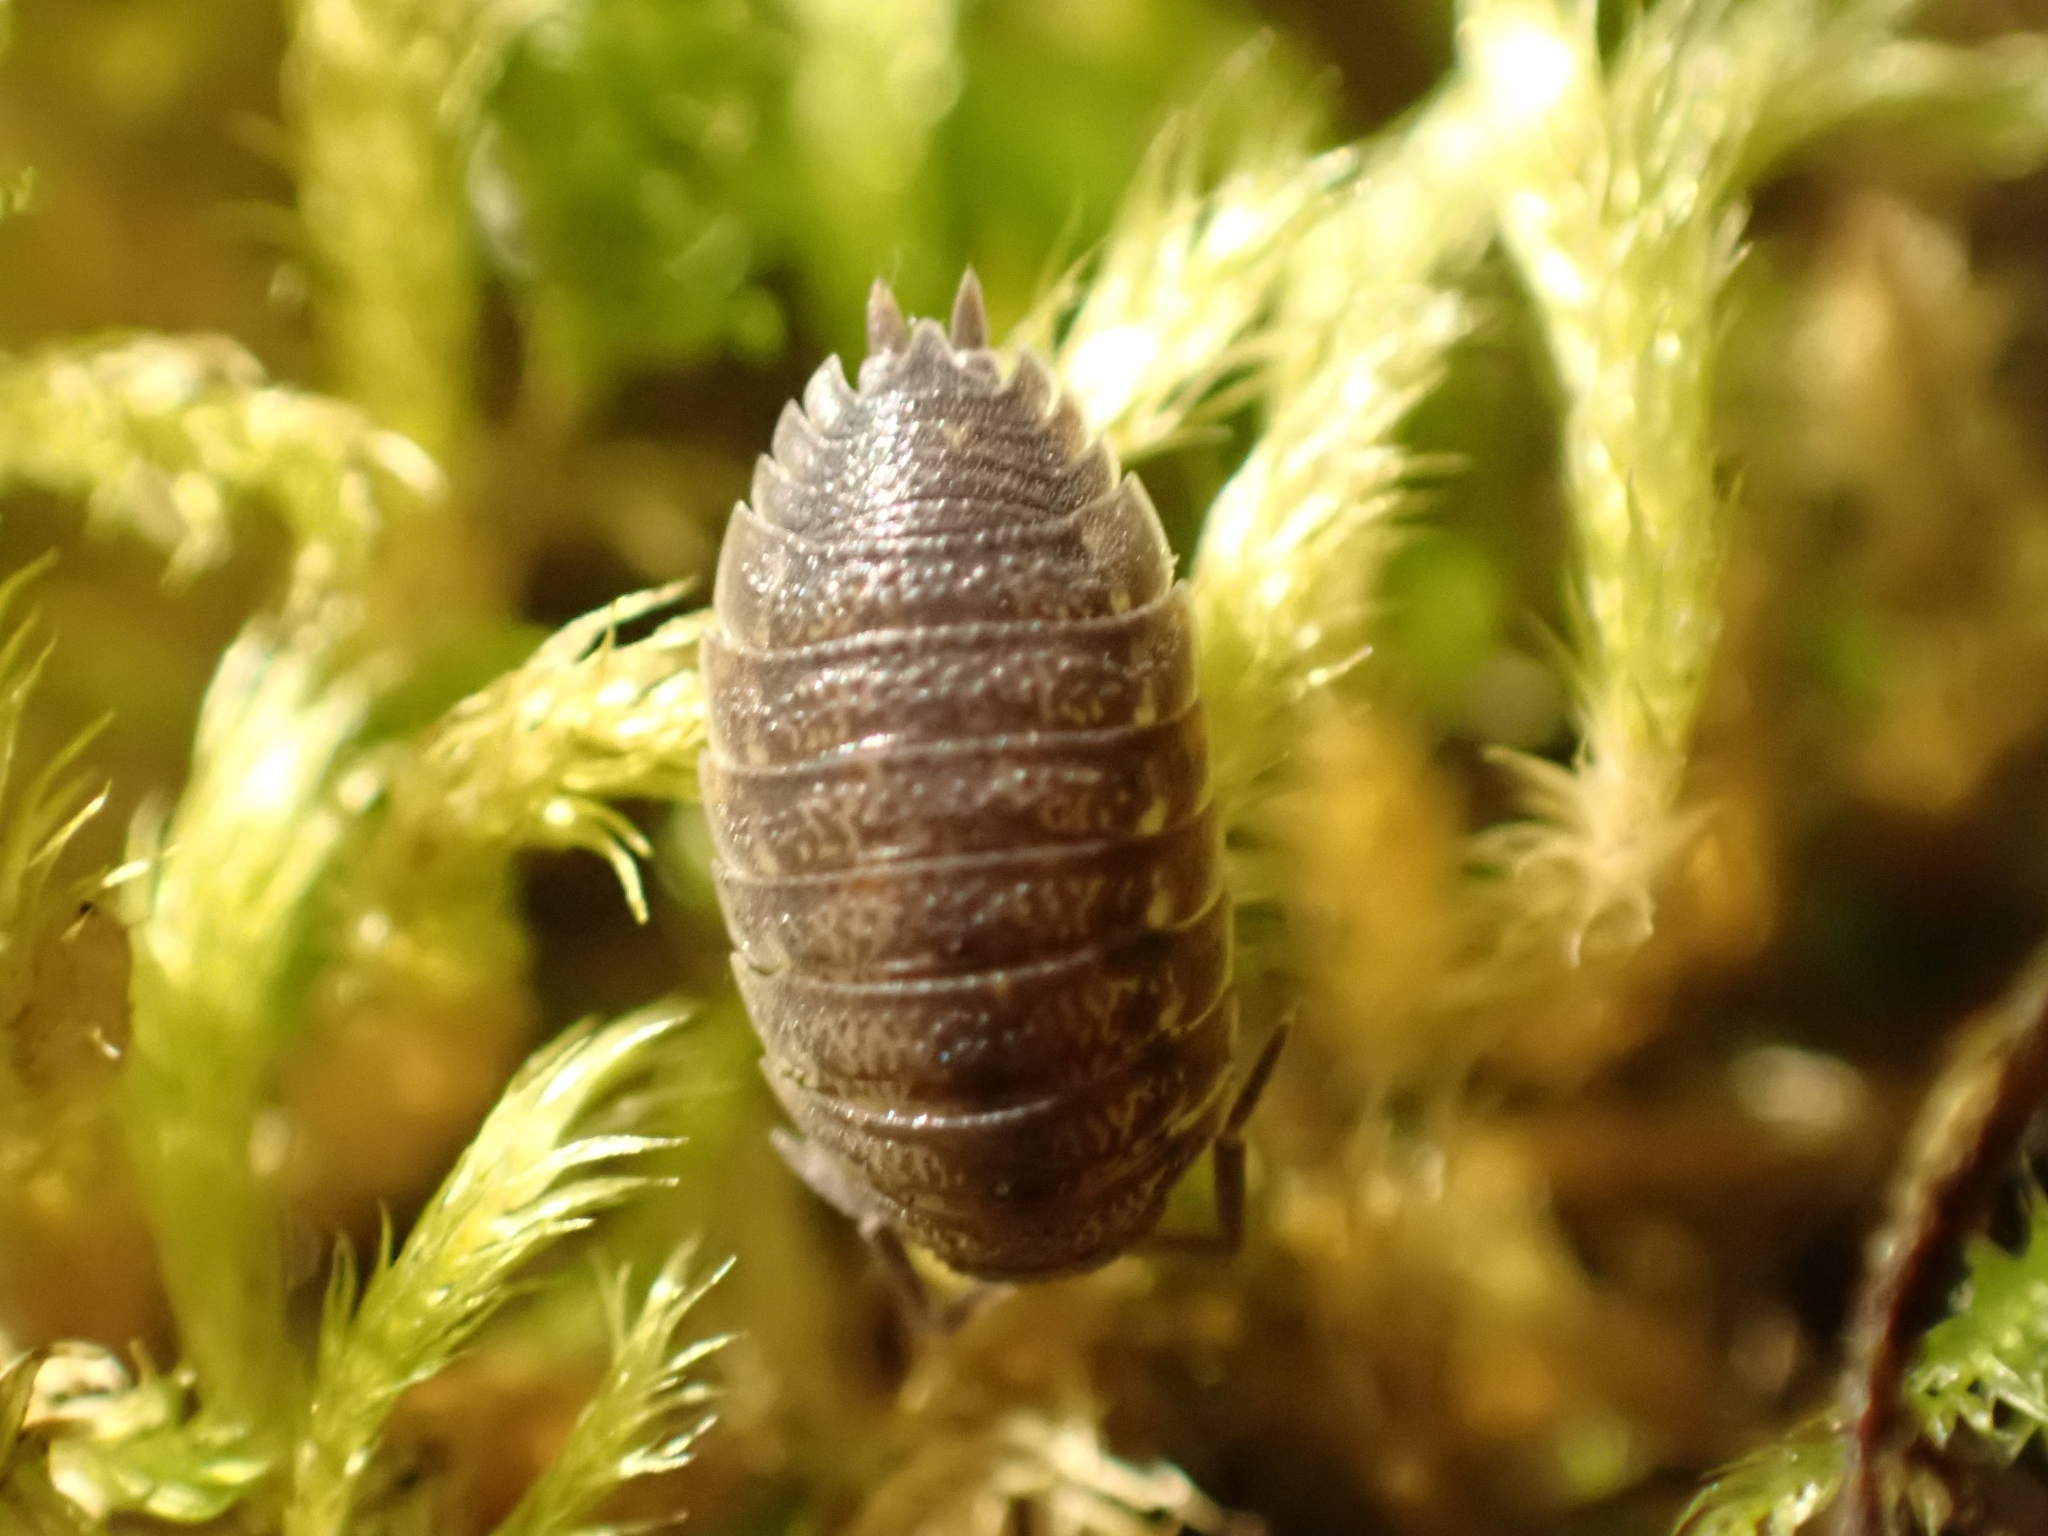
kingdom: Animalia
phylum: Arthropoda
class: Malacostraca
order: Isopoda
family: Porcellionidae
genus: Porcellio
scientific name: Porcellio scaber
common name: Common rough woodlouse
